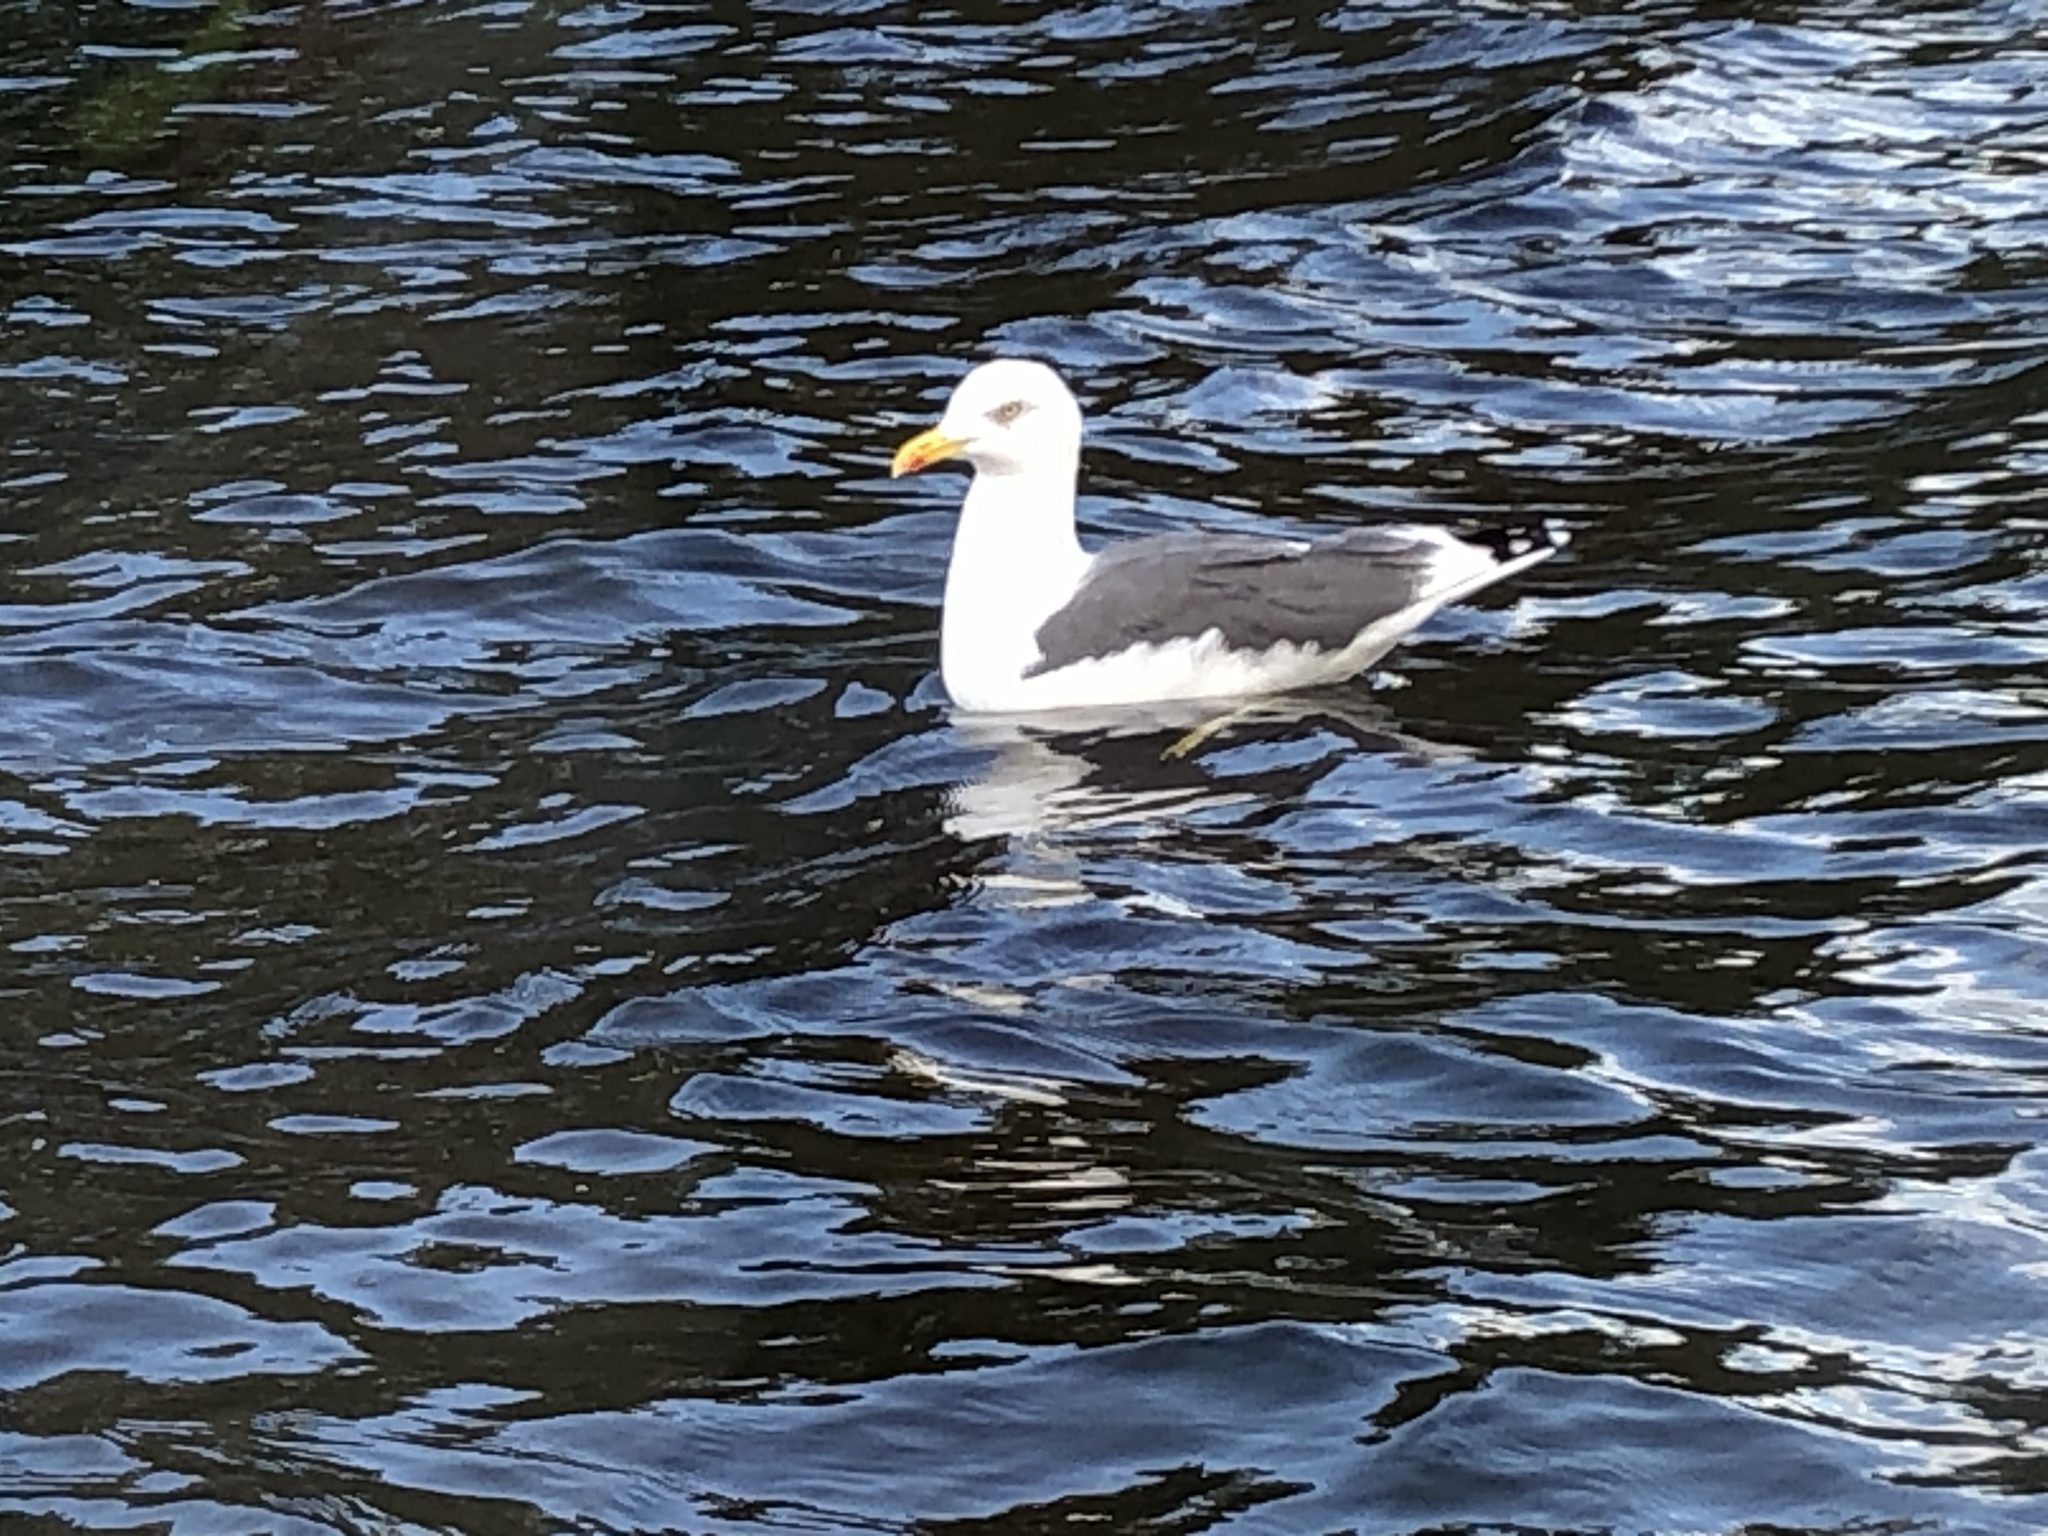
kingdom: Animalia
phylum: Chordata
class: Aves
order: Charadriiformes
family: Laridae
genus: Larus
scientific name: Larus fuscus
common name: Lesser black-backed gull
